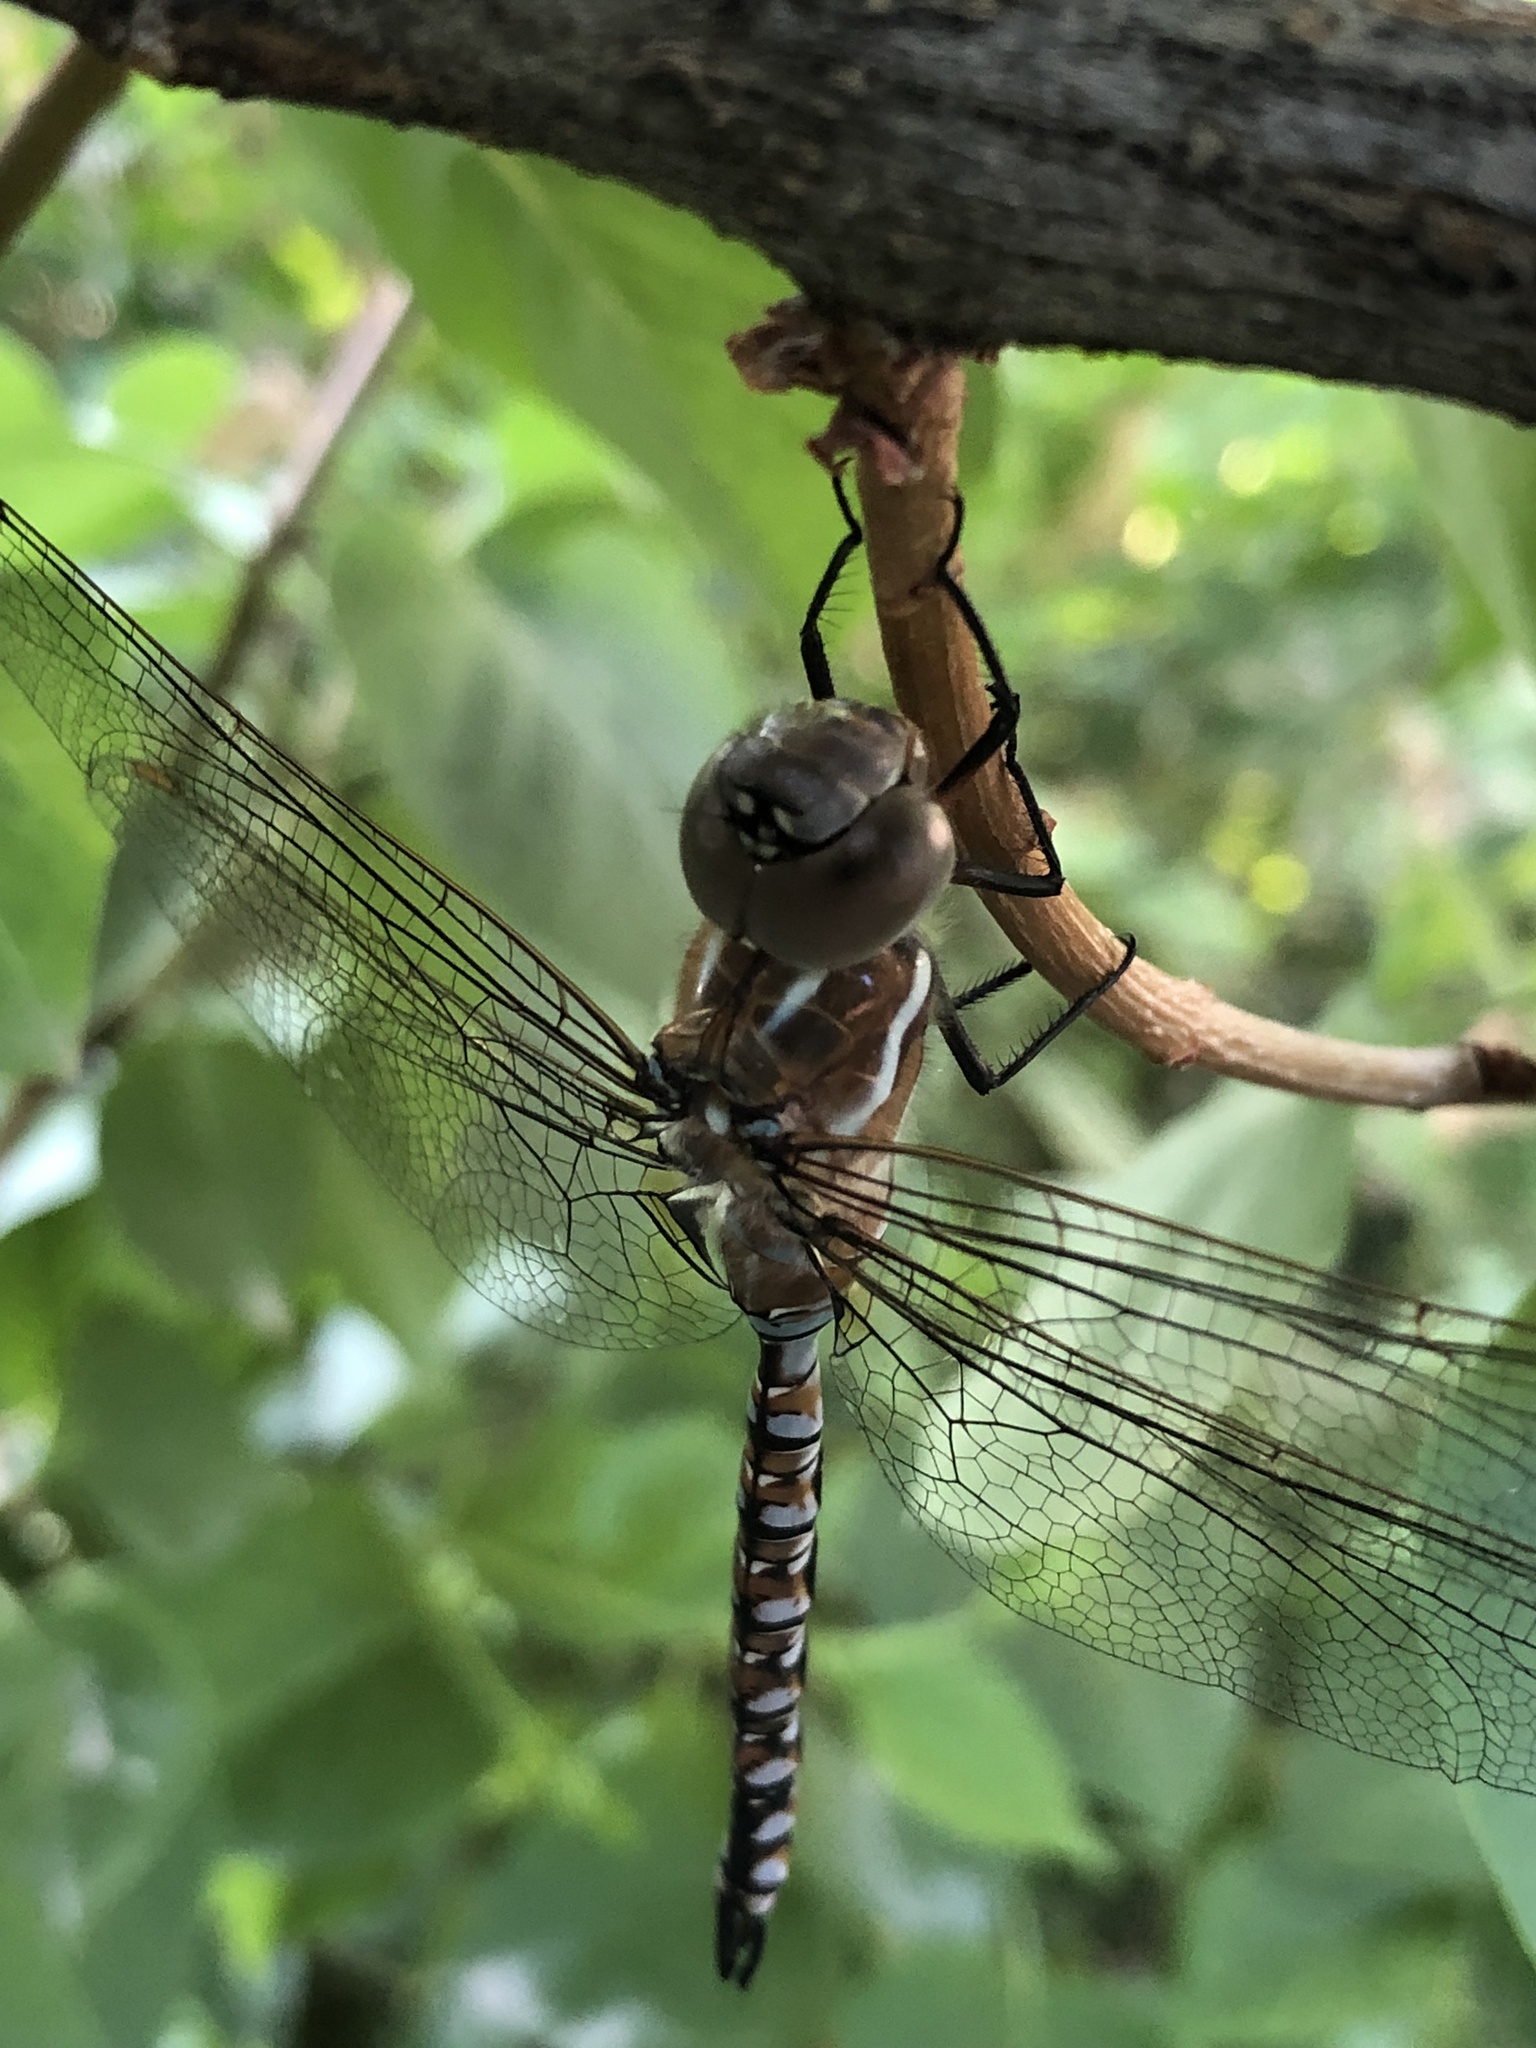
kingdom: Animalia
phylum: Arthropoda
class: Insecta
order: Odonata
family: Aeshnidae
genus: Rhionaeschna
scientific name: Rhionaeschna multicolor
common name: Blue-eyed darner
